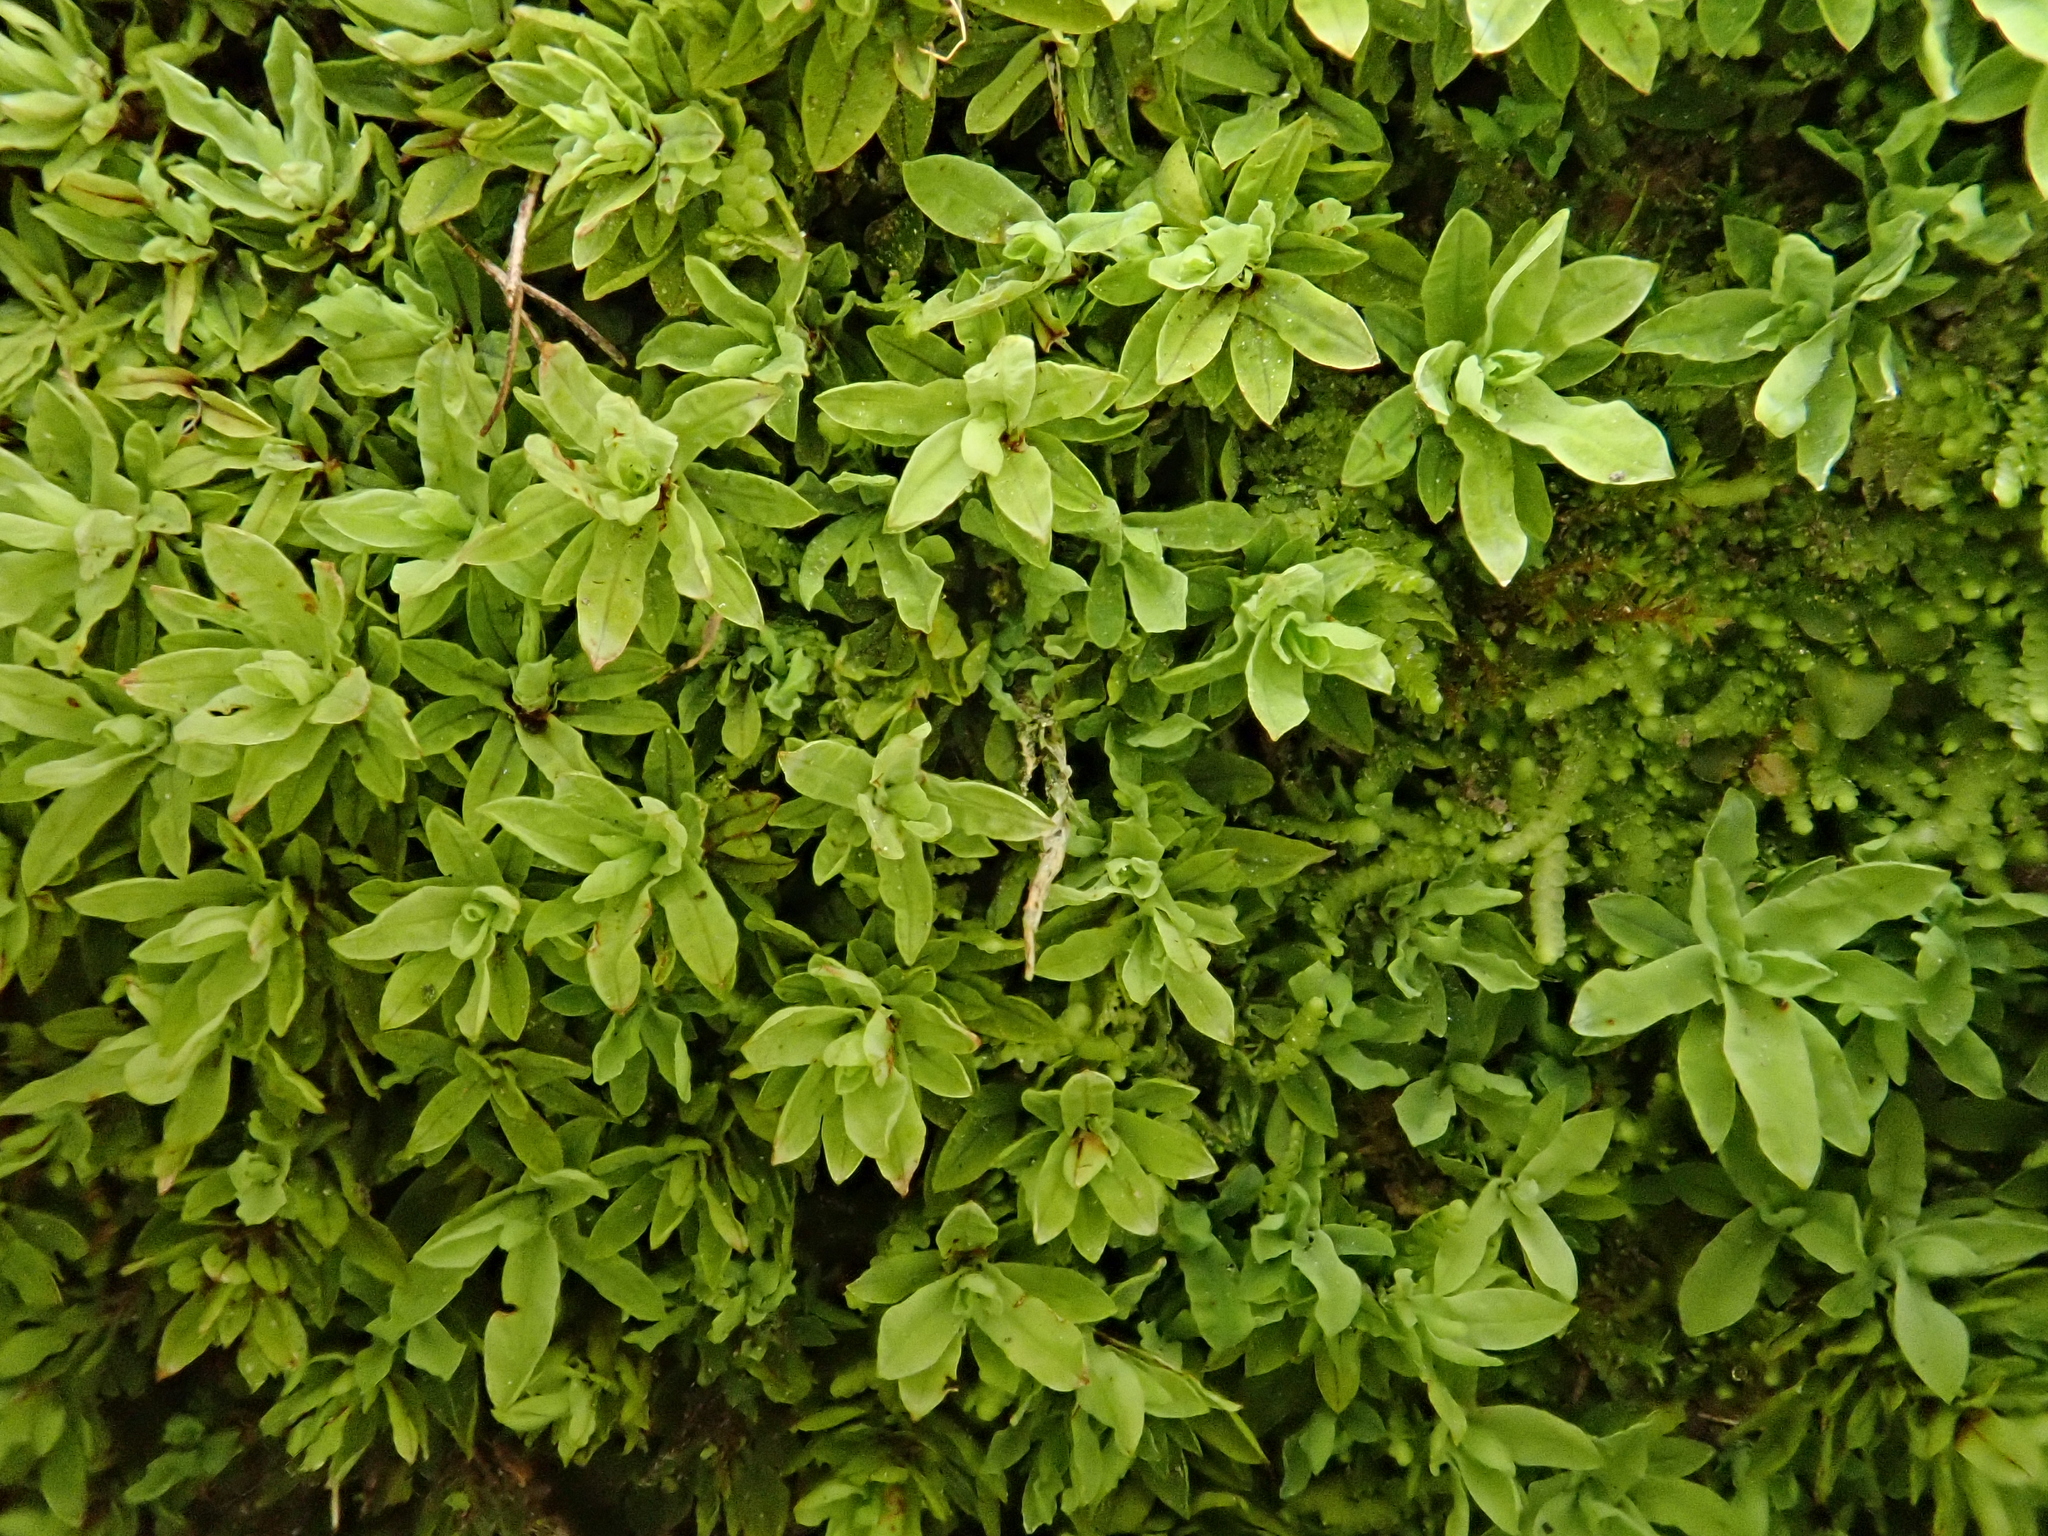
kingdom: Plantae
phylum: Bryophyta
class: Bryopsida
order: Encalyptales
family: Encalyptaceae
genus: Encalypta
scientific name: Encalypta streptocarpa
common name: Spiral extinguisher-moss
